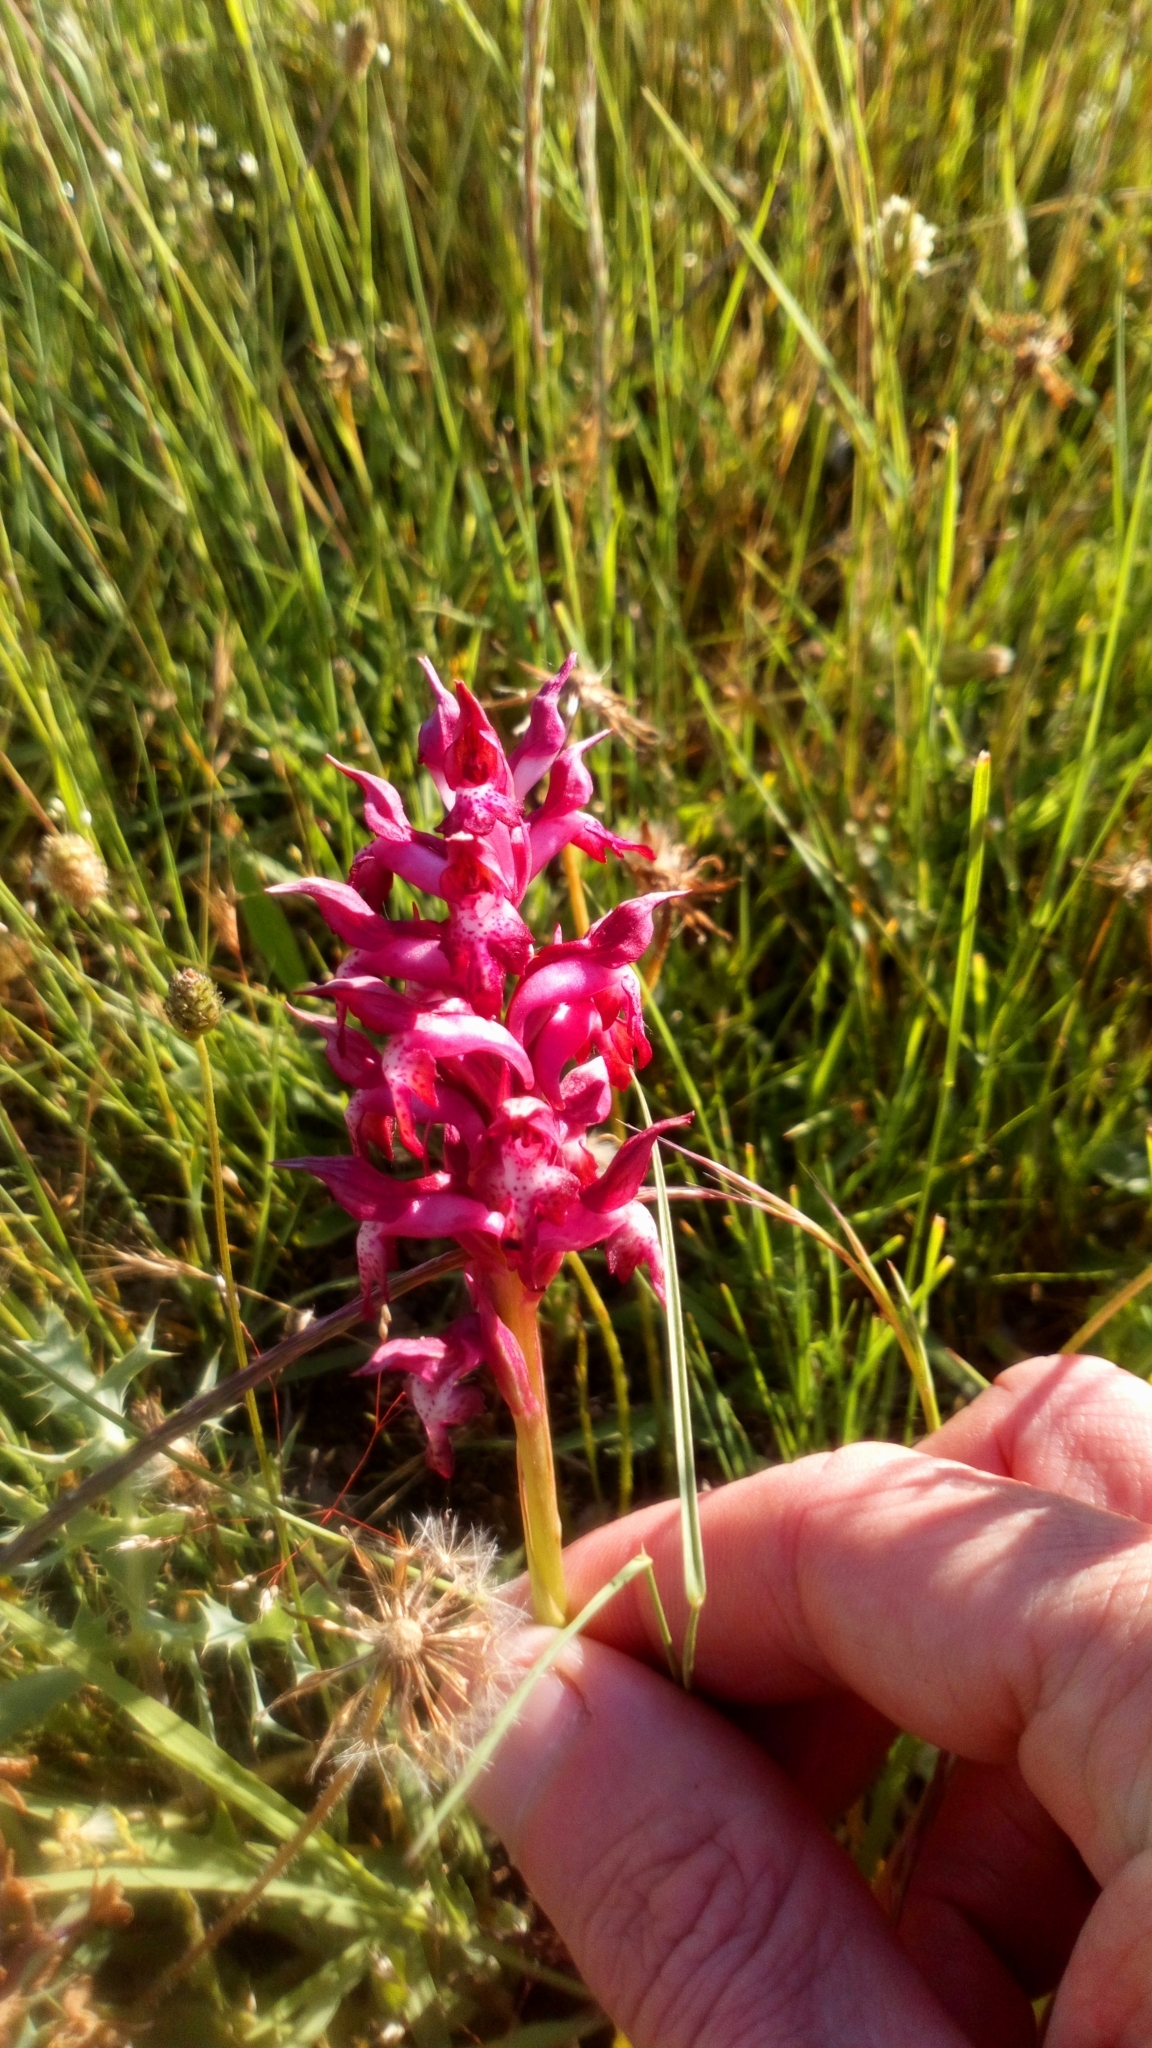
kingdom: Plantae
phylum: Tracheophyta
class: Liliopsida
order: Asparagales
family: Orchidaceae
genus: Anacamptis
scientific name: Anacamptis coriophora
